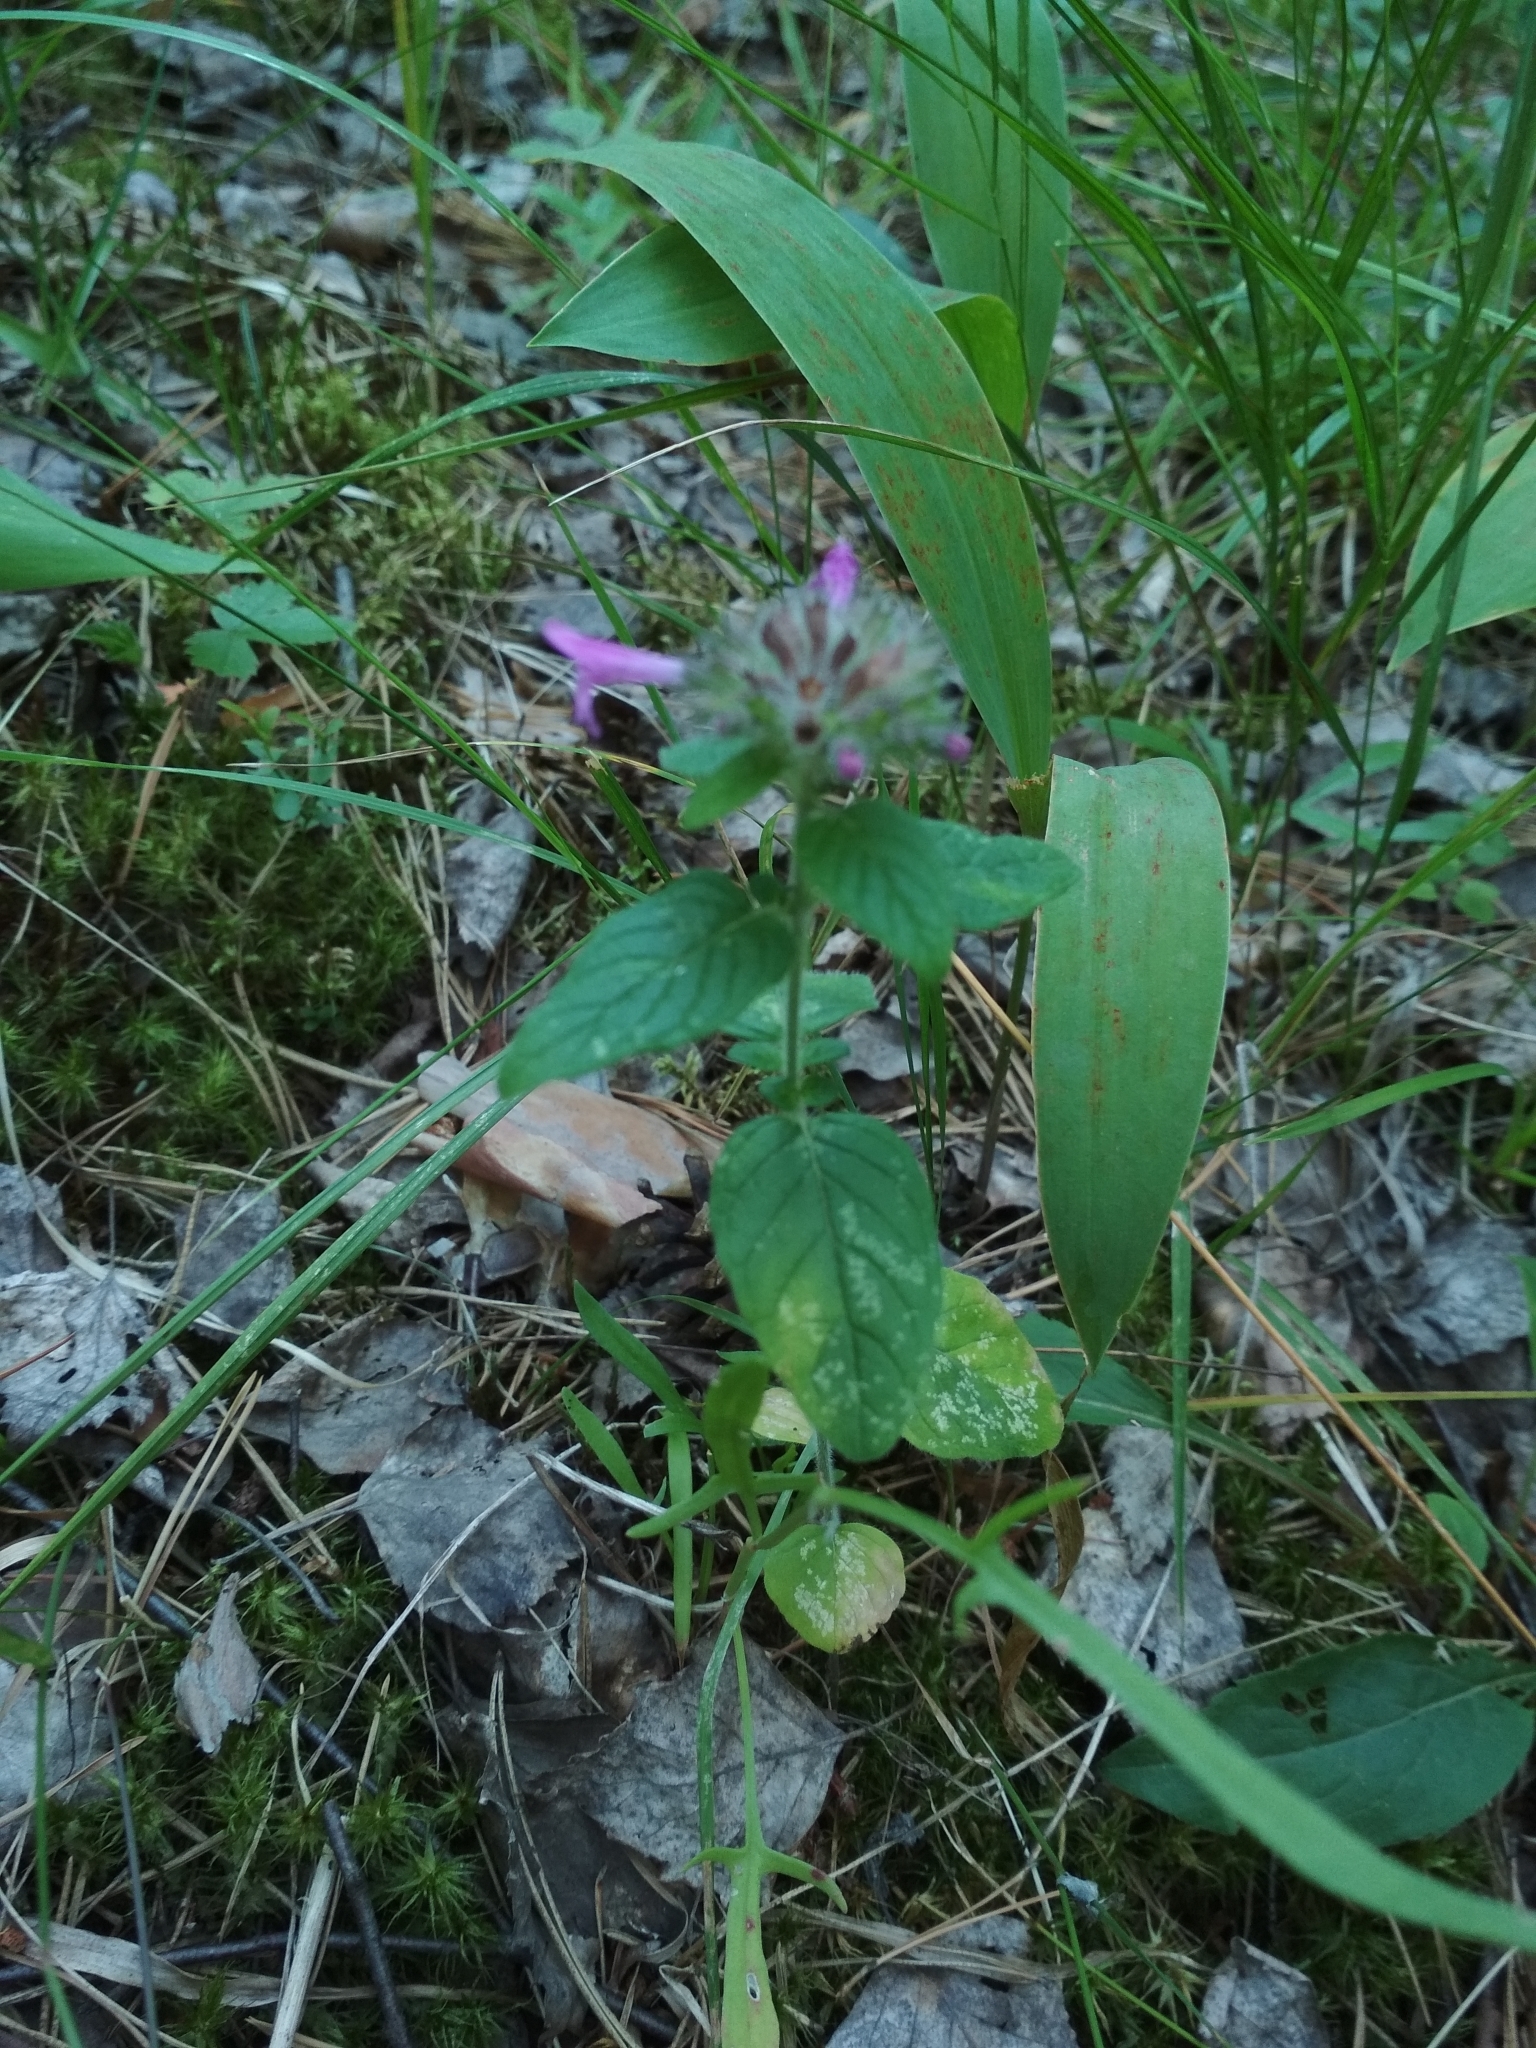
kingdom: Plantae
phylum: Tracheophyta
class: Magnoliopsida
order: Lamiales
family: Lamiaceae
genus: Clinopodium
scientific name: Clinopodium vulgare
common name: Wild basil
